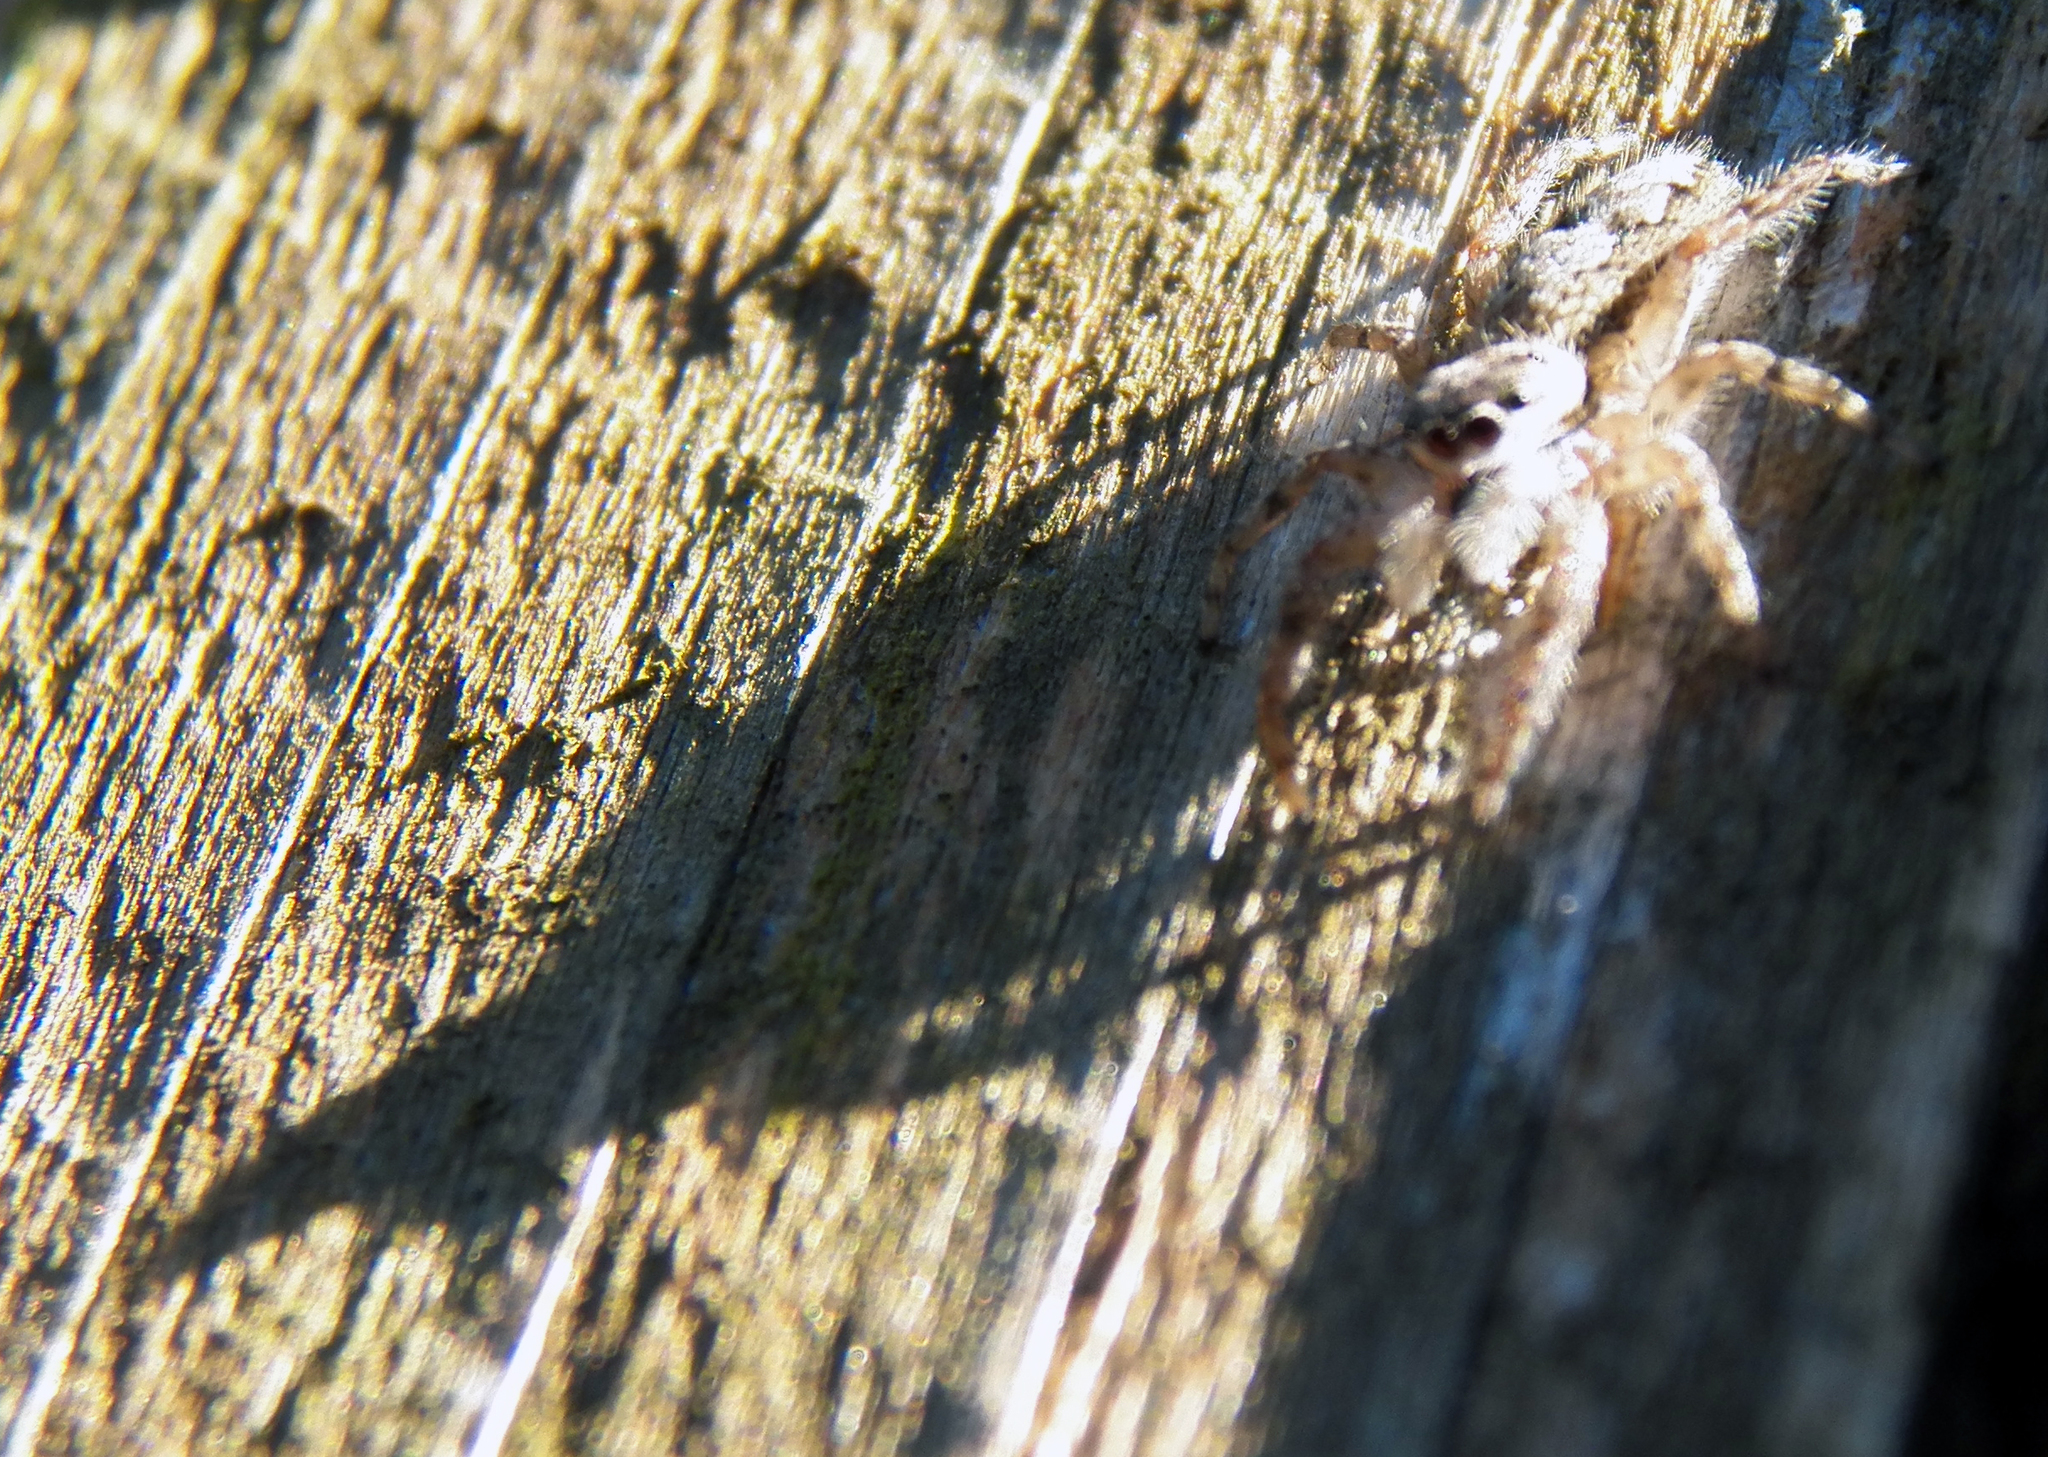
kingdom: Animalia
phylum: Arthropoda
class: Arachnida
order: Araneae
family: Salticidae
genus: Platycryptus
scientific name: Platycryptus undatus
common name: Tan jumping spider
